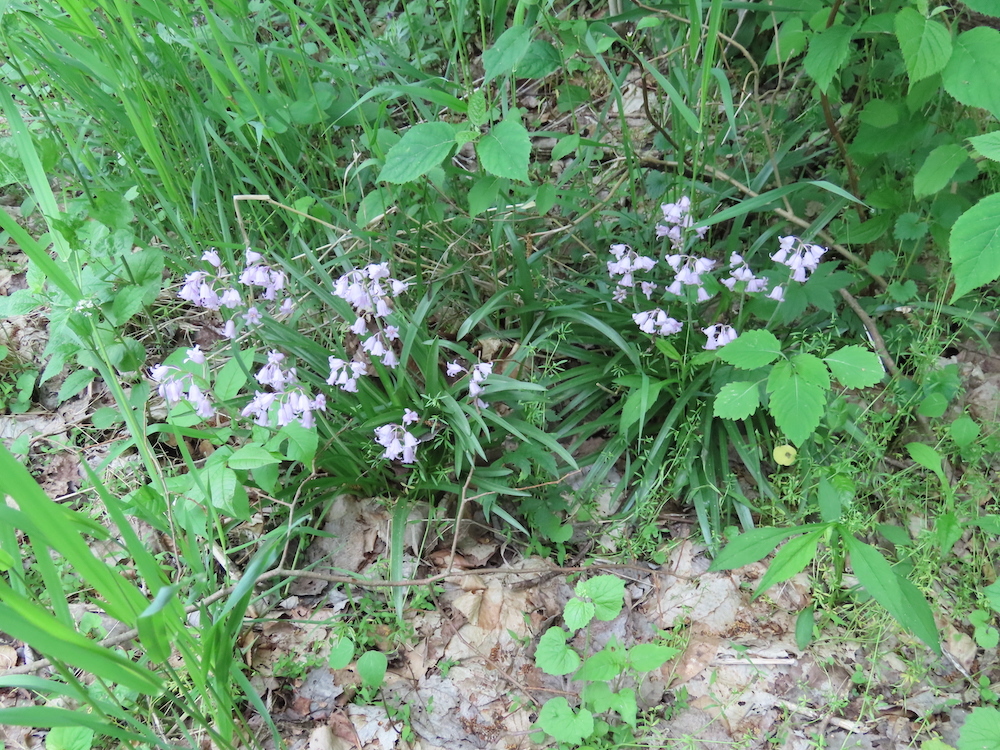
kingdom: Plantae
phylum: Tracheophyta
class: Liliopsida
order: Asparagales
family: Asparagaceae
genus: Hyacinthoides
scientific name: Hyacinthoides hispanica
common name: Spanish bluebell
